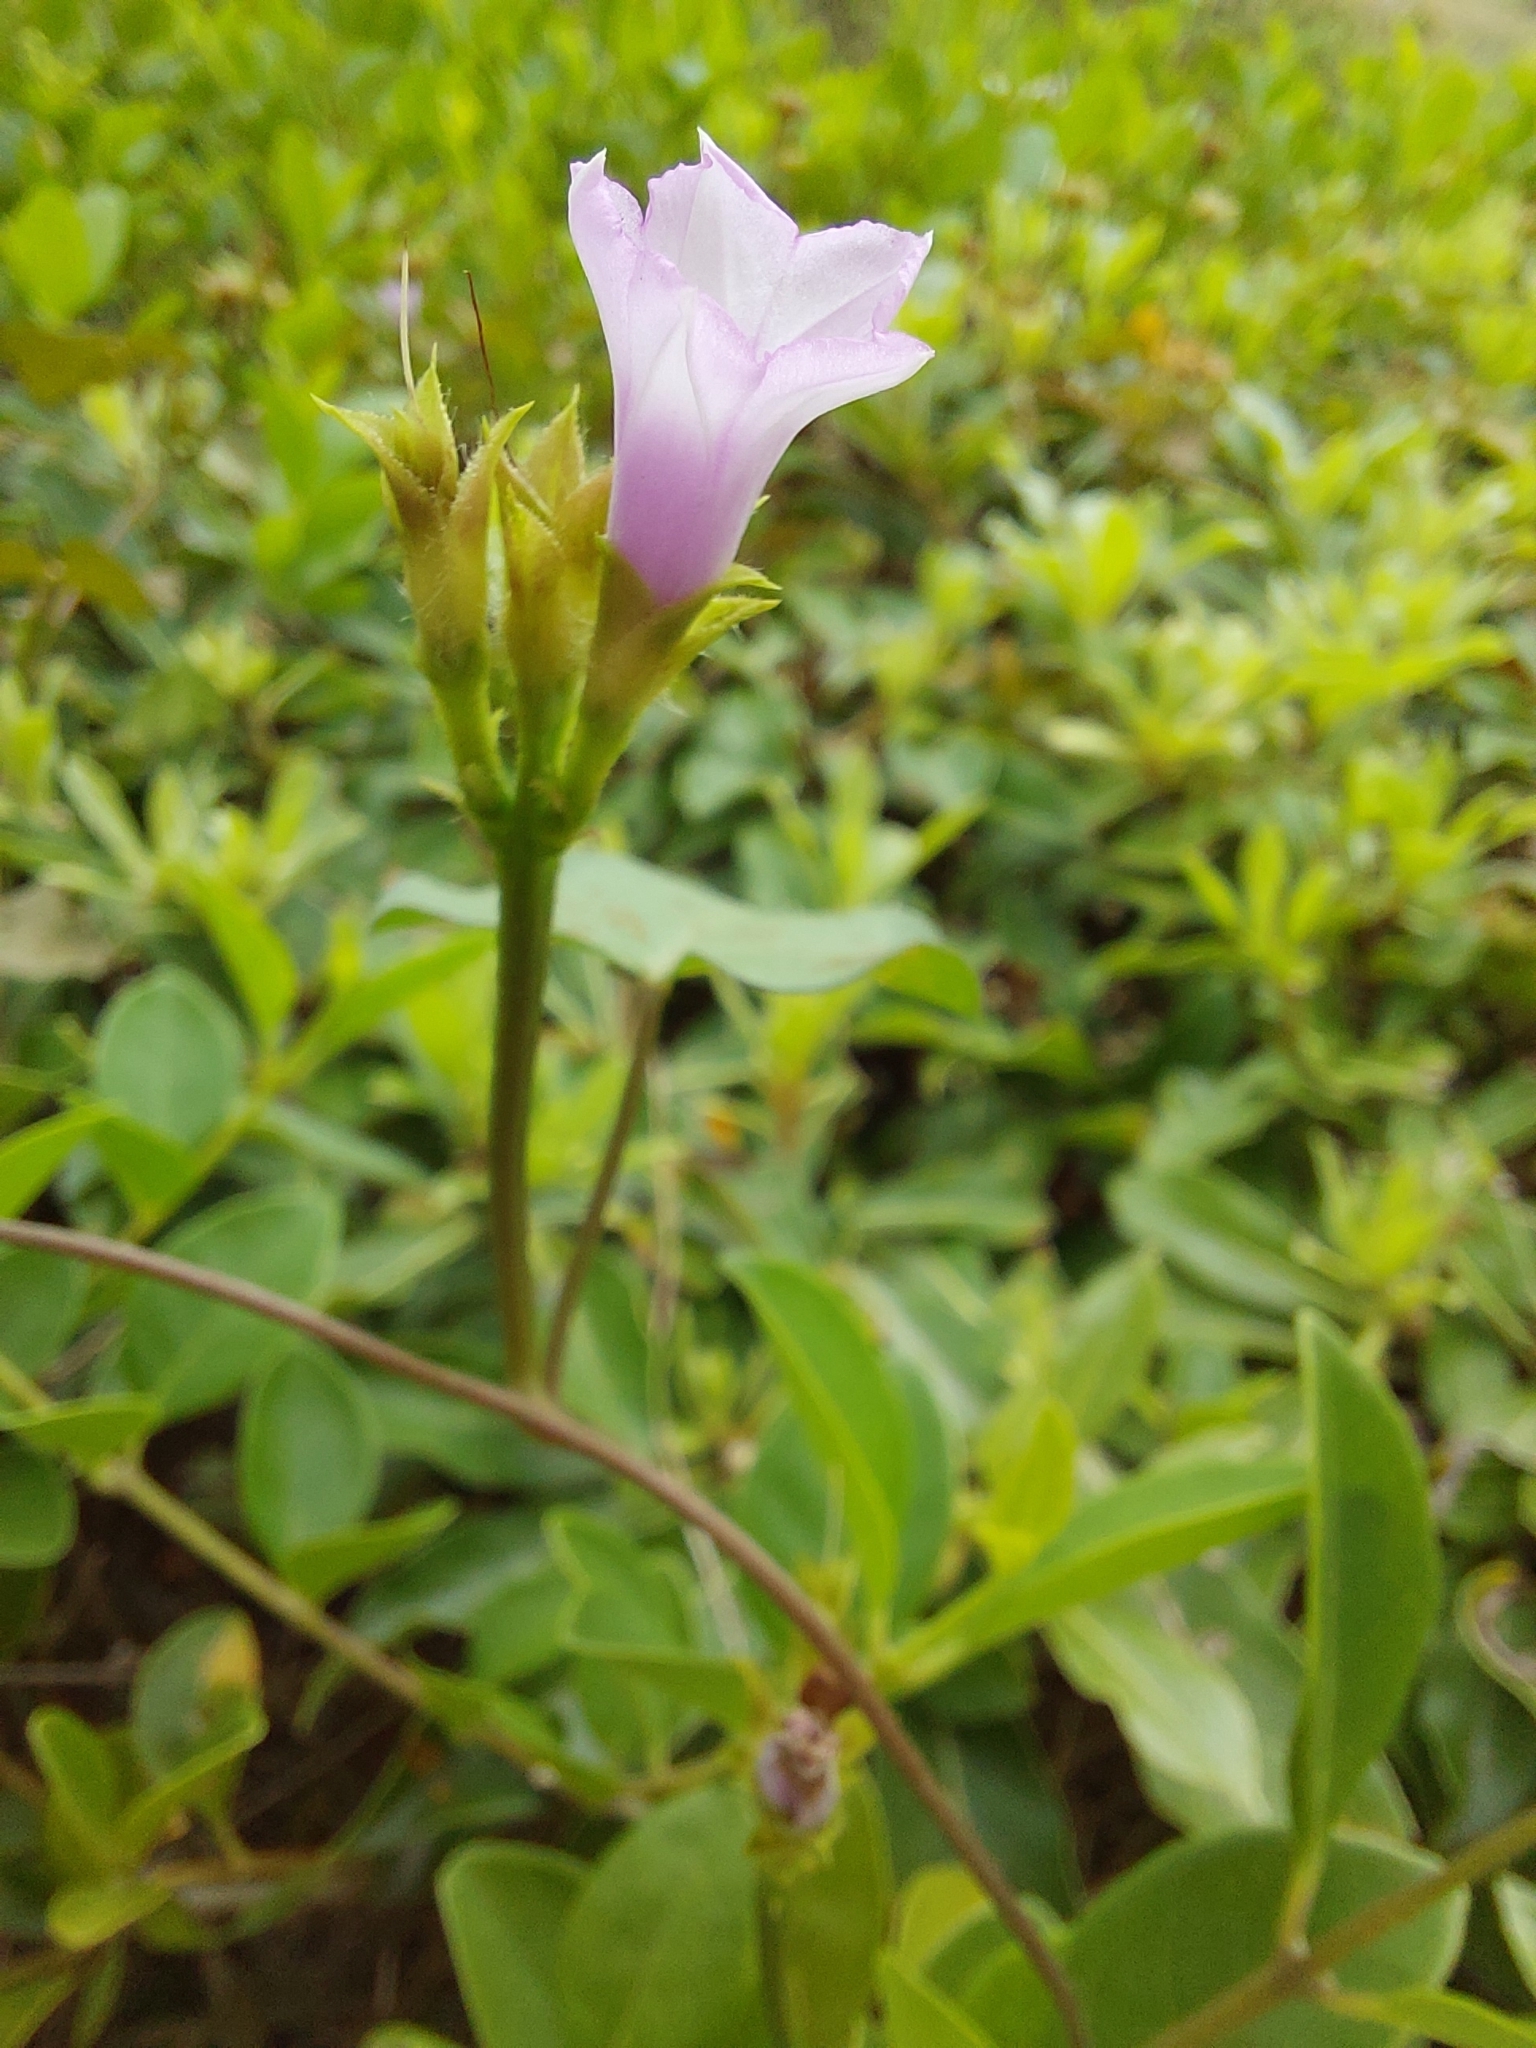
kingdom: Plantae
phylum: Tracheophyta
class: Magnoliopsida
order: Solanales
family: Convolvulaceae
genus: Ipomoea
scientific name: Ipomoea triloba
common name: Little-bell
